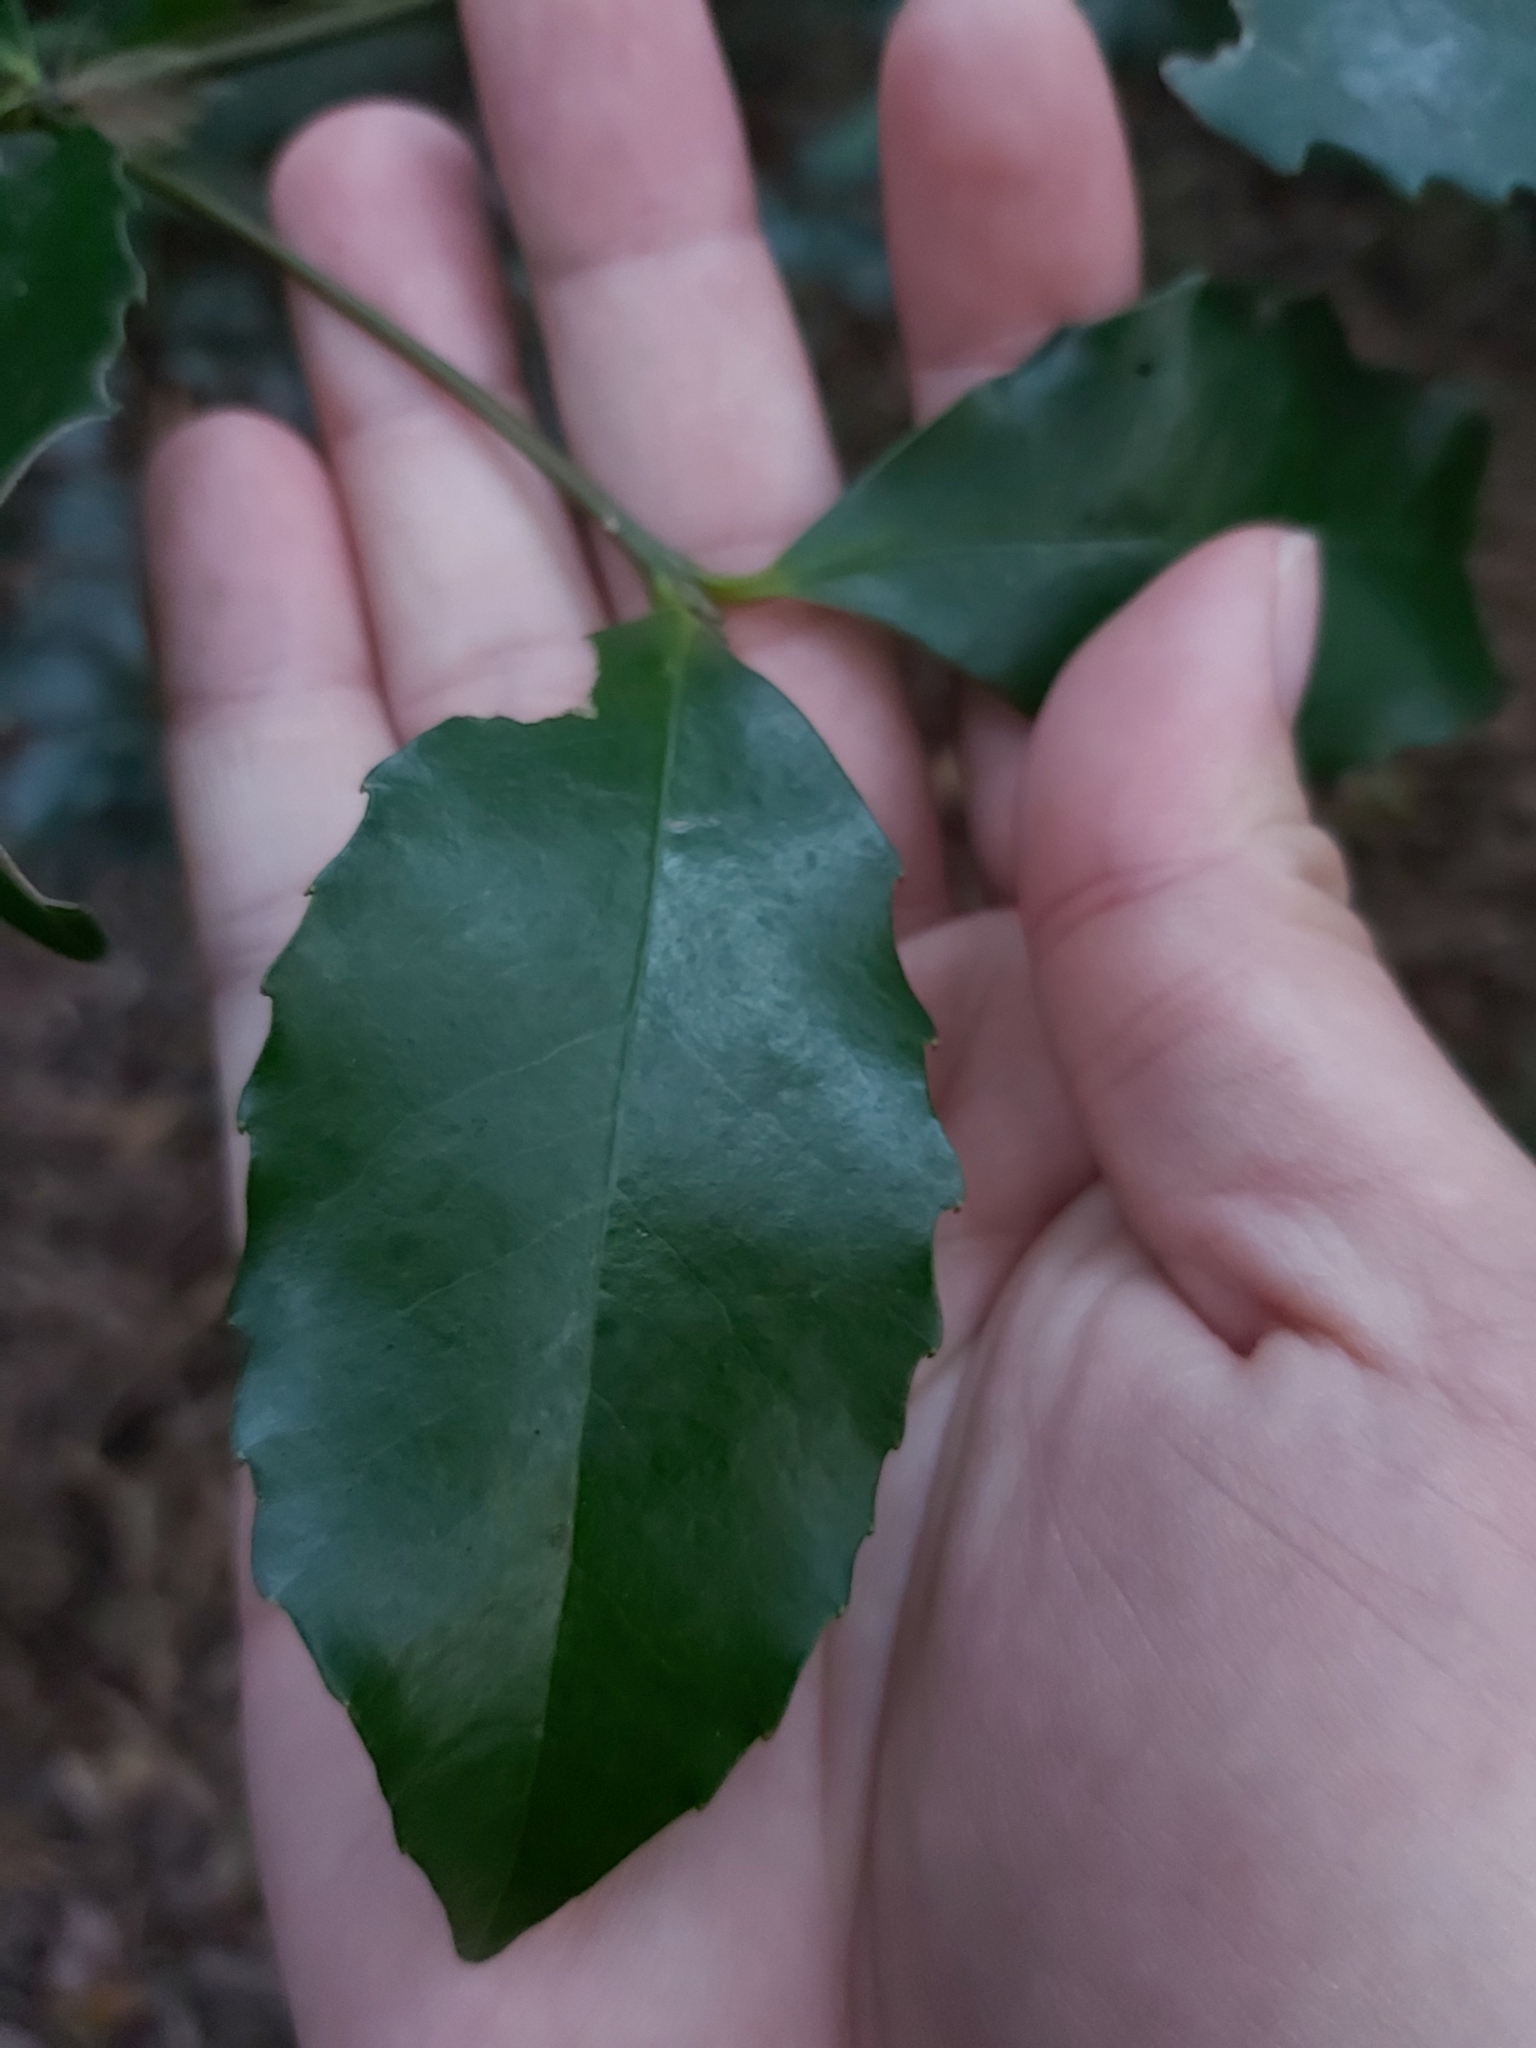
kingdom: Plantae
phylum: Tracheophyta
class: Magnoliopsida
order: Laurales
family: Atherospermataceae
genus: Doryphora
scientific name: Doryphora sassafras
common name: Golden-sassafras
